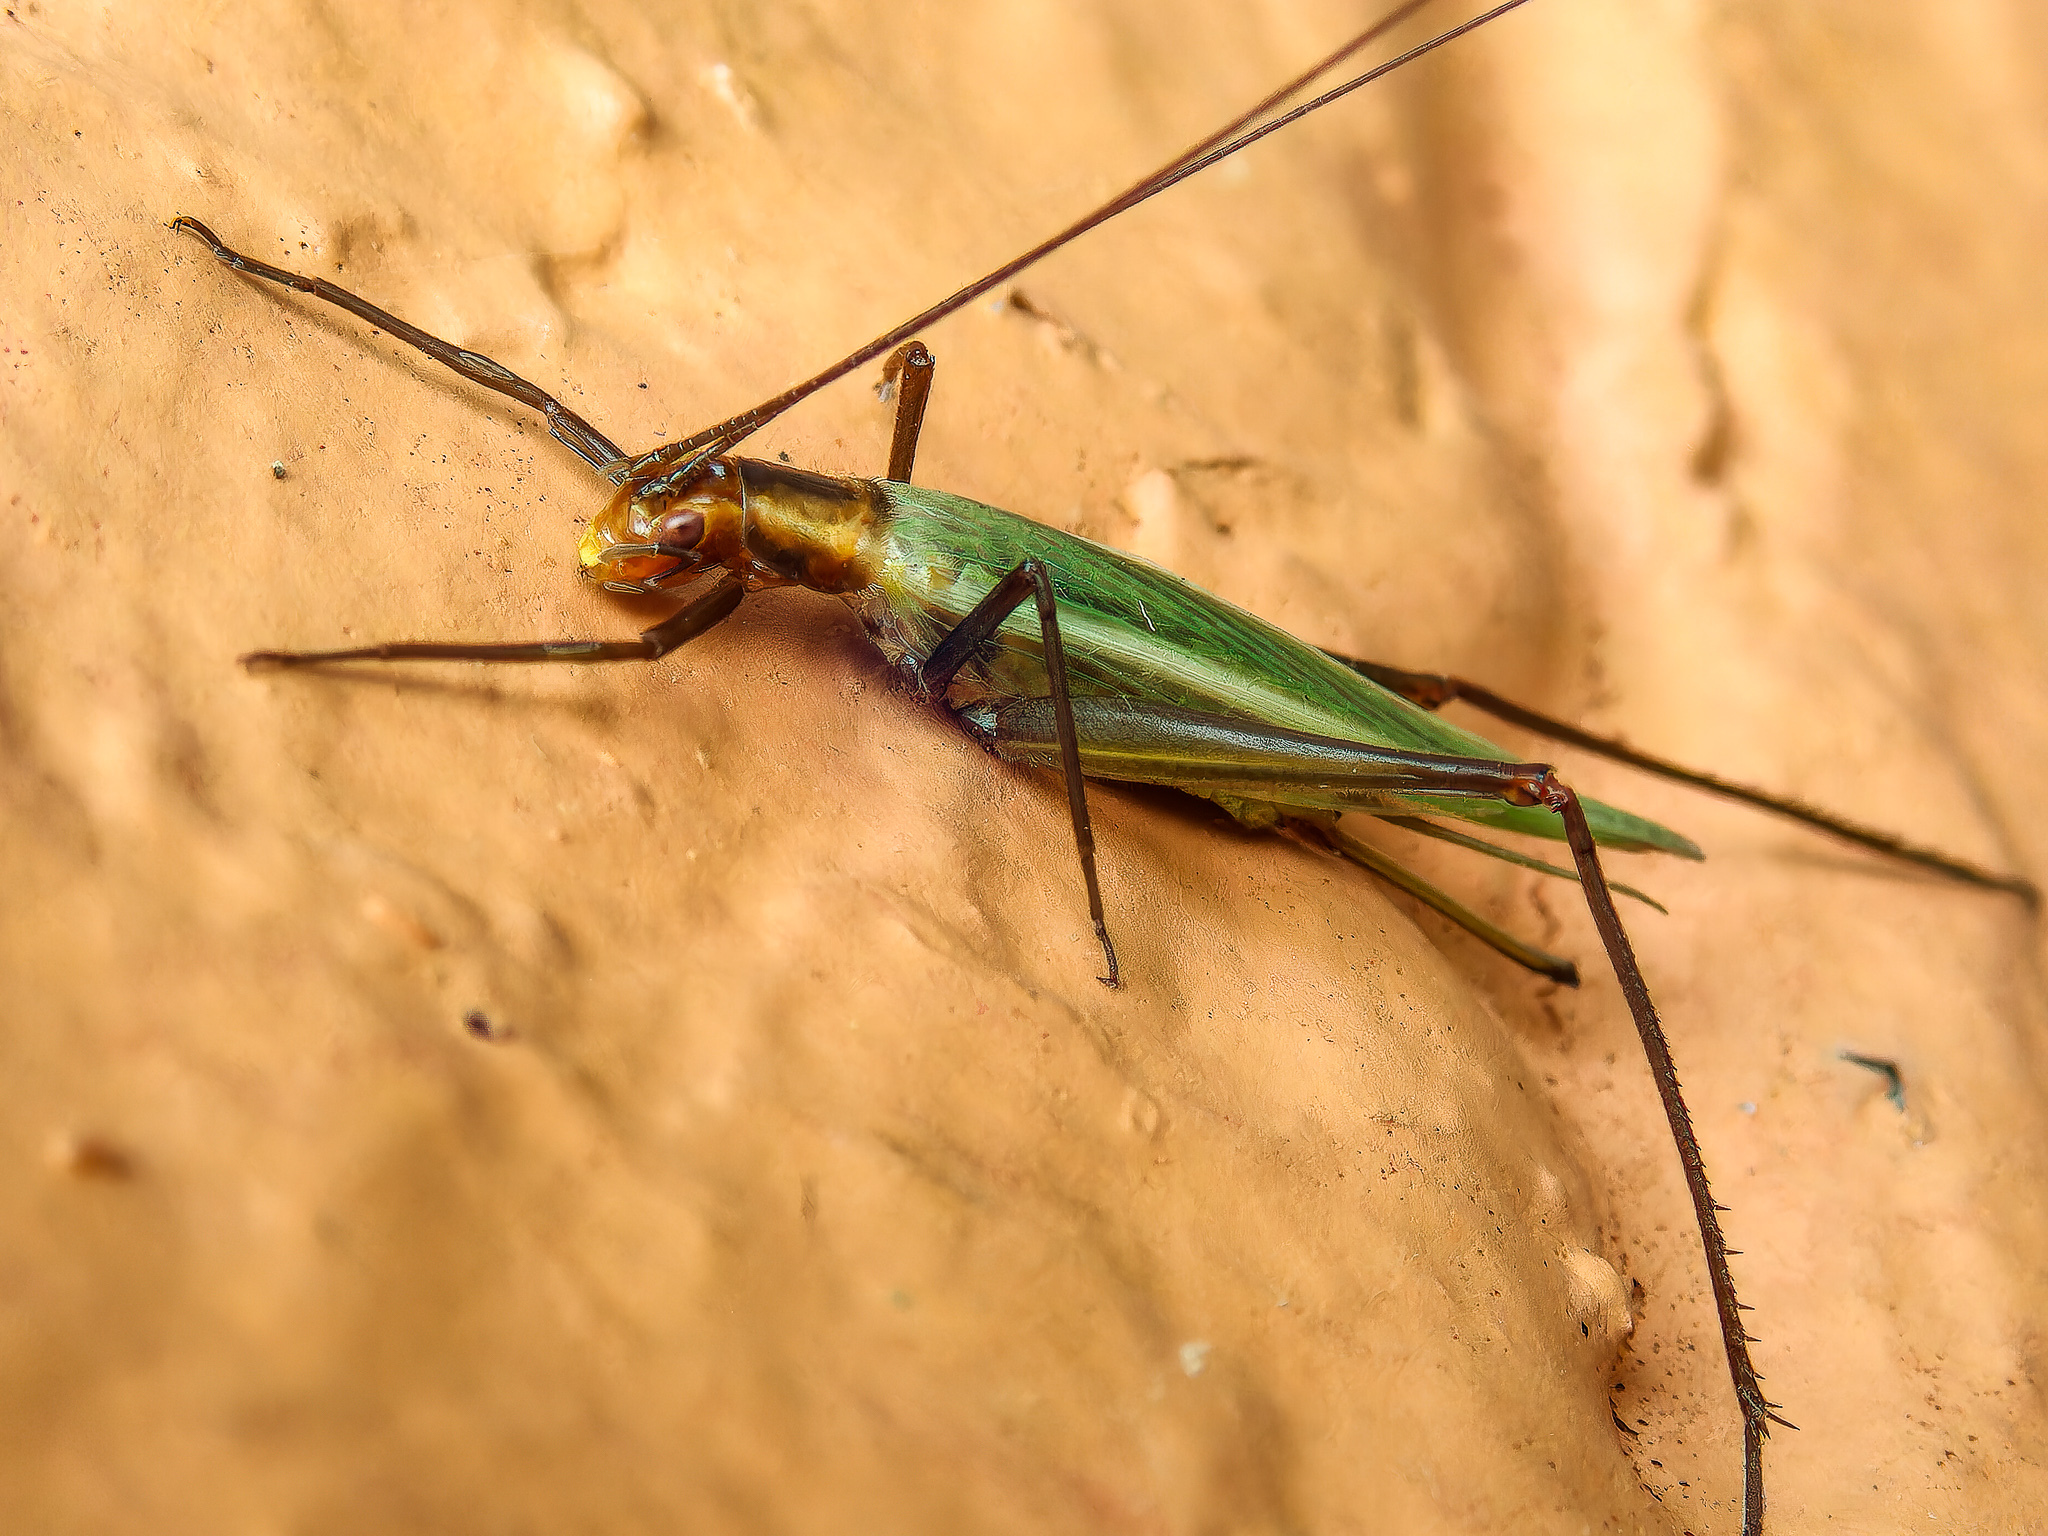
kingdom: Animalia
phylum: Arthropoda
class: Insecta
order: Orthoptera
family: Gryllidae
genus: Oecanthus
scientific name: Oecanthus pini
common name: Pine tree cricket
